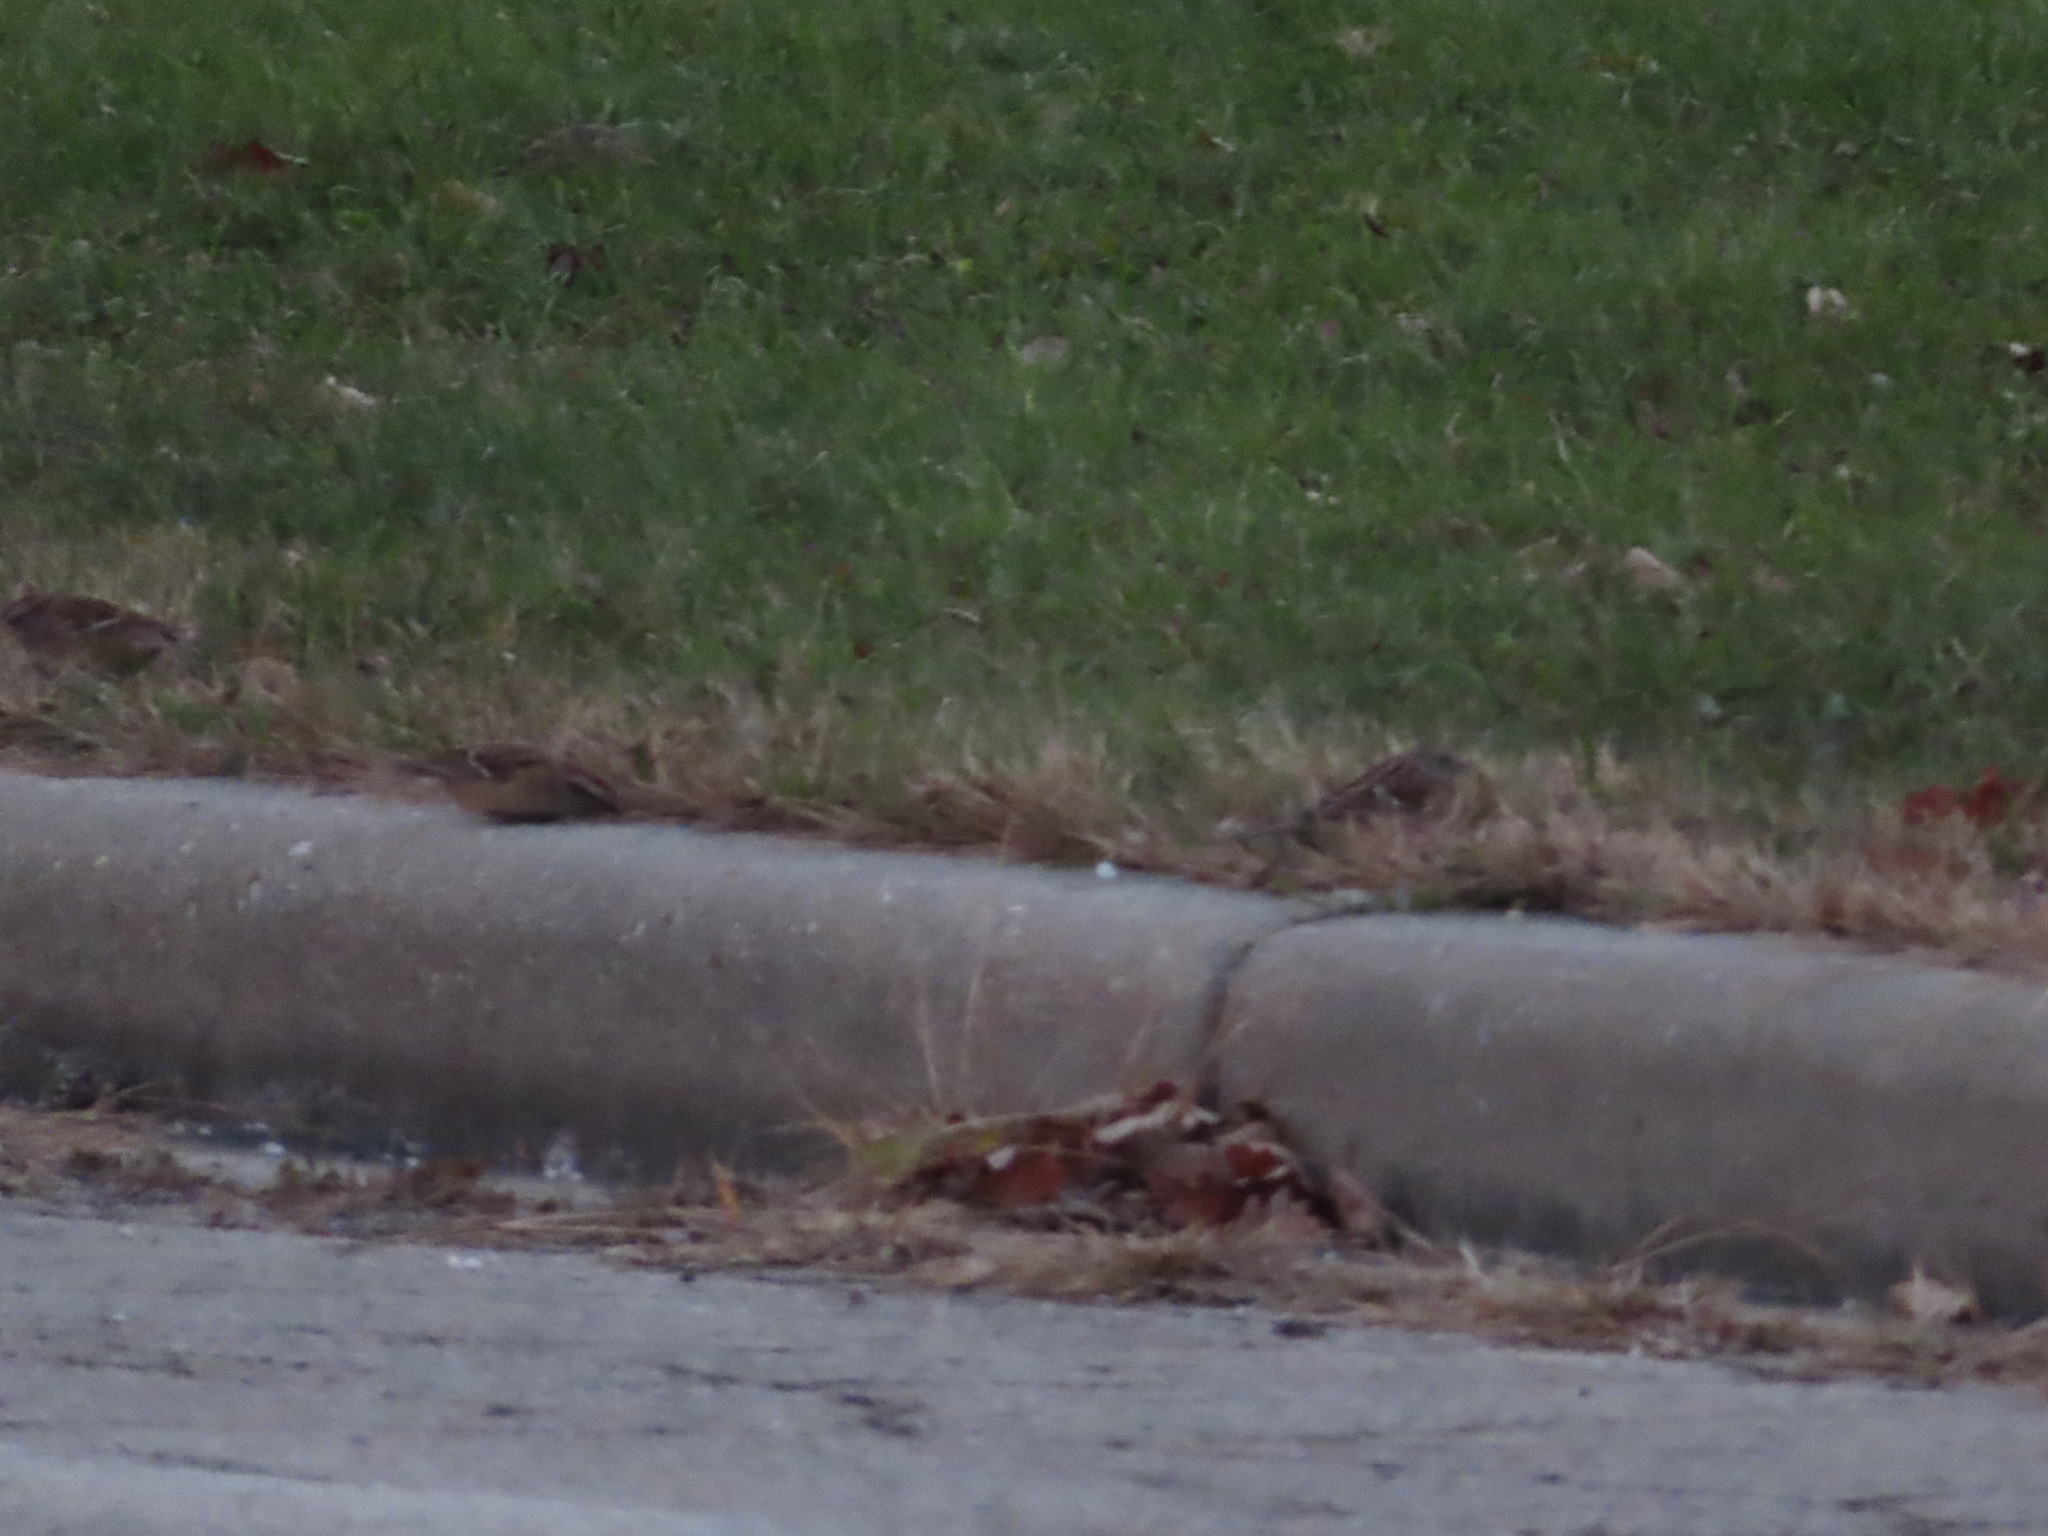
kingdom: Animalia
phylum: Chordata
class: Aves
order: Passeriformes
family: Passerellidae
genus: Spizella
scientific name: Spizella passerina
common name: Chipping sparrow
